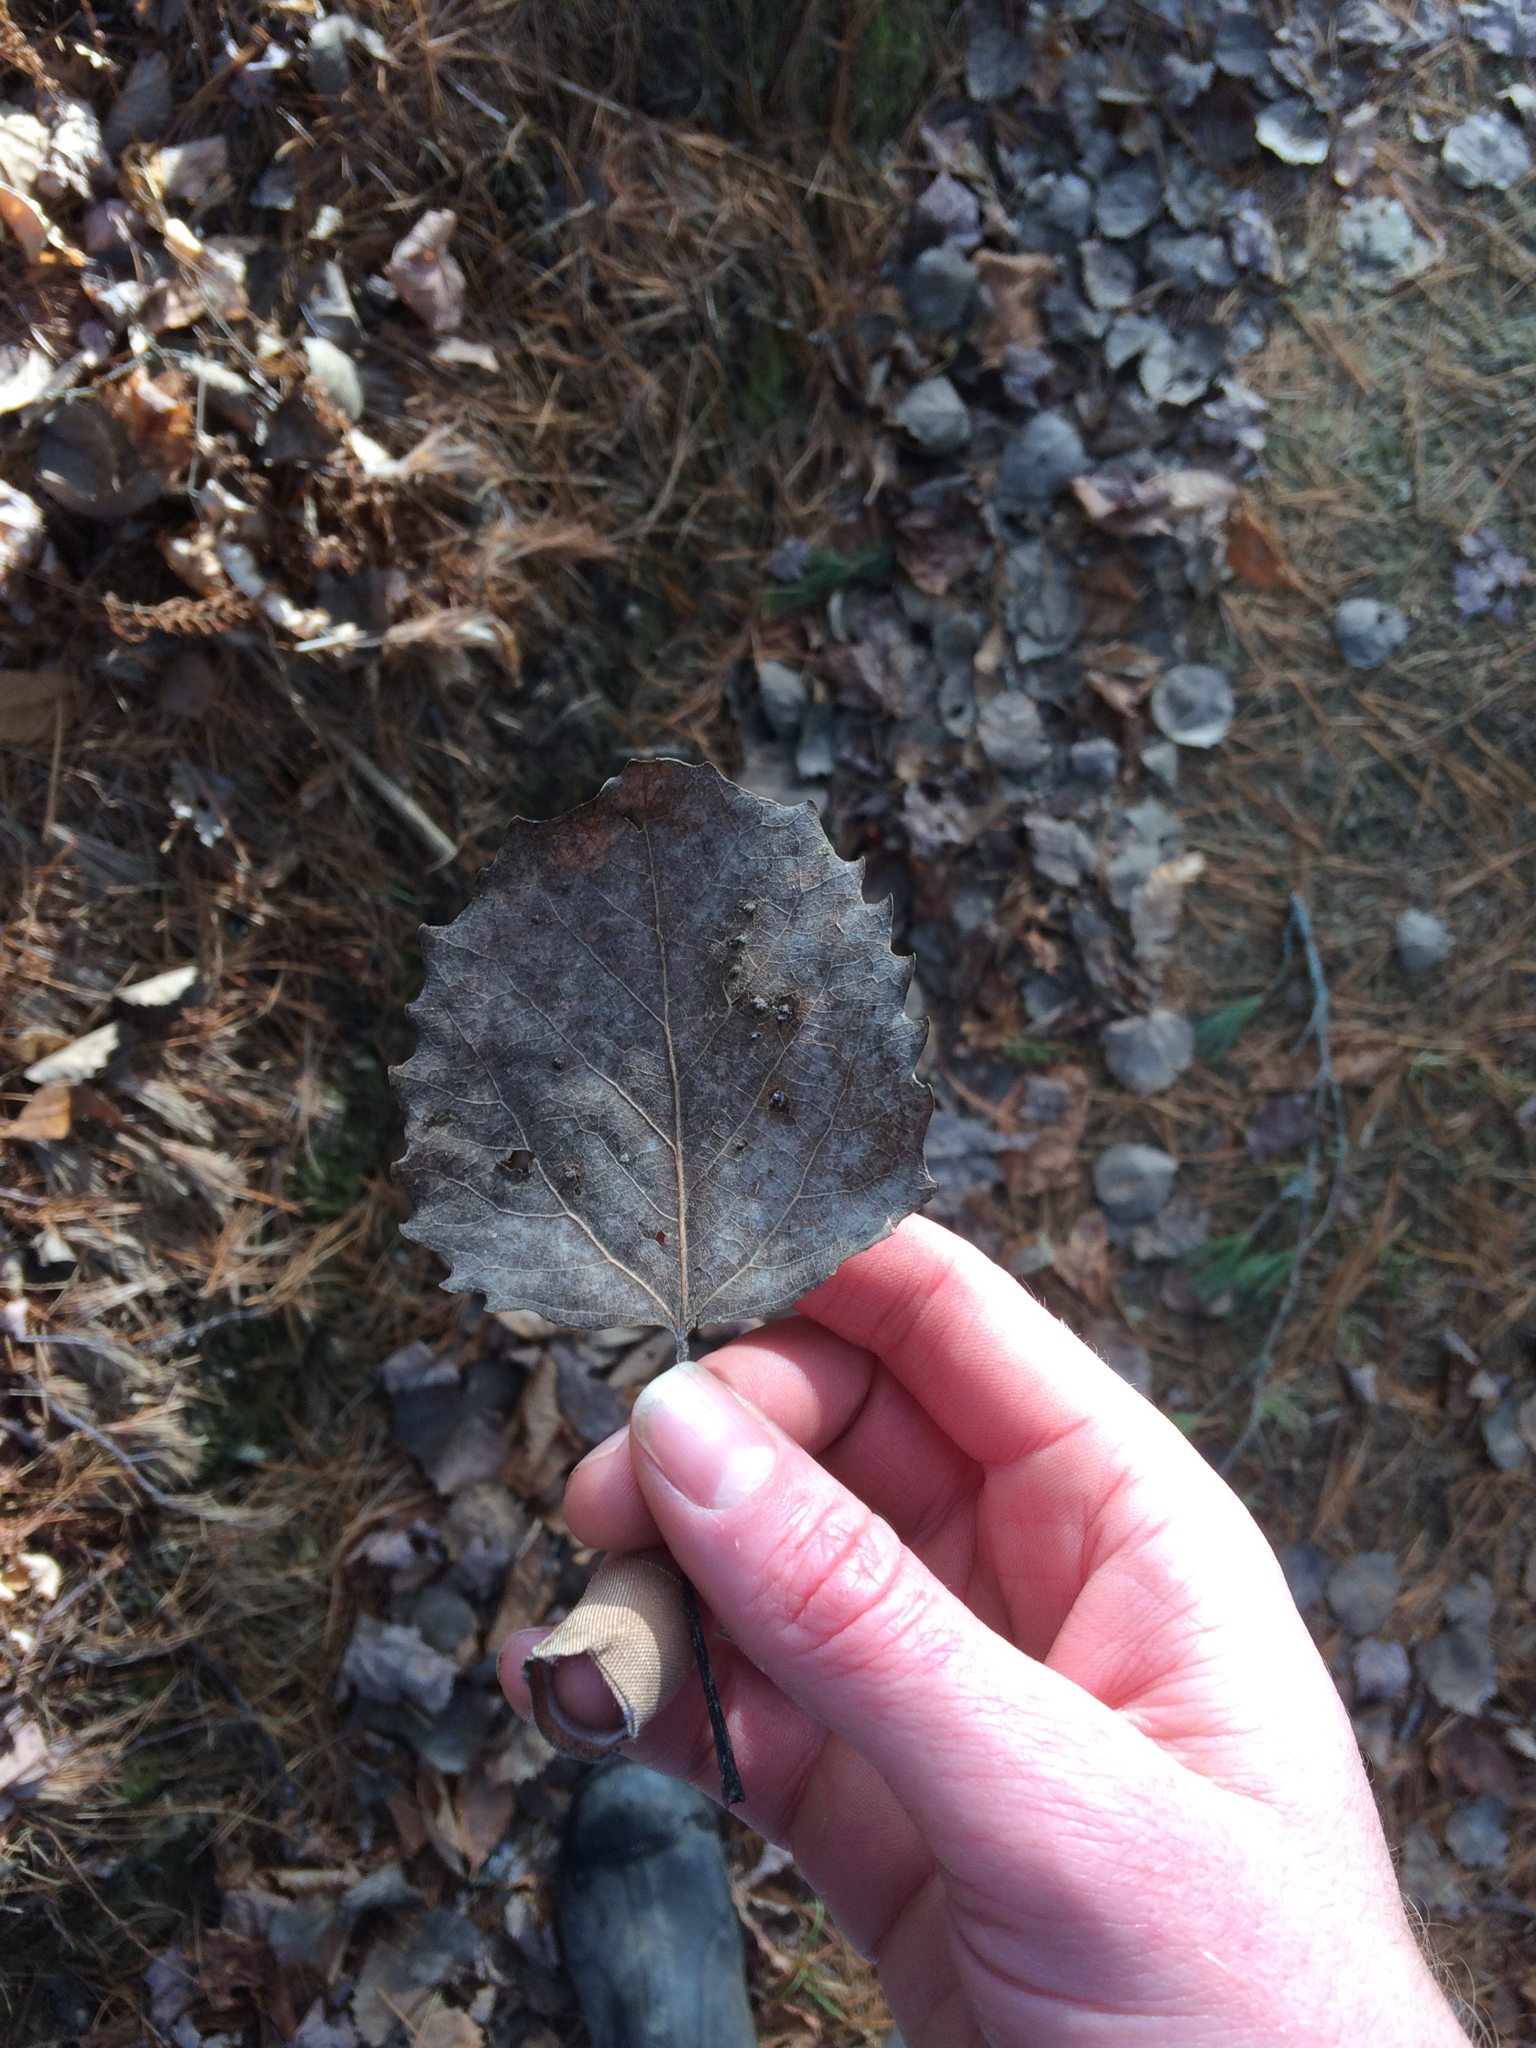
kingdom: Plantae
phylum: Tracheophyta
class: Magnoliopsida
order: Malpighiales
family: Salicaceae
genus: Populus
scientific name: Populus grandidentata
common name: Bigtooth aspen
